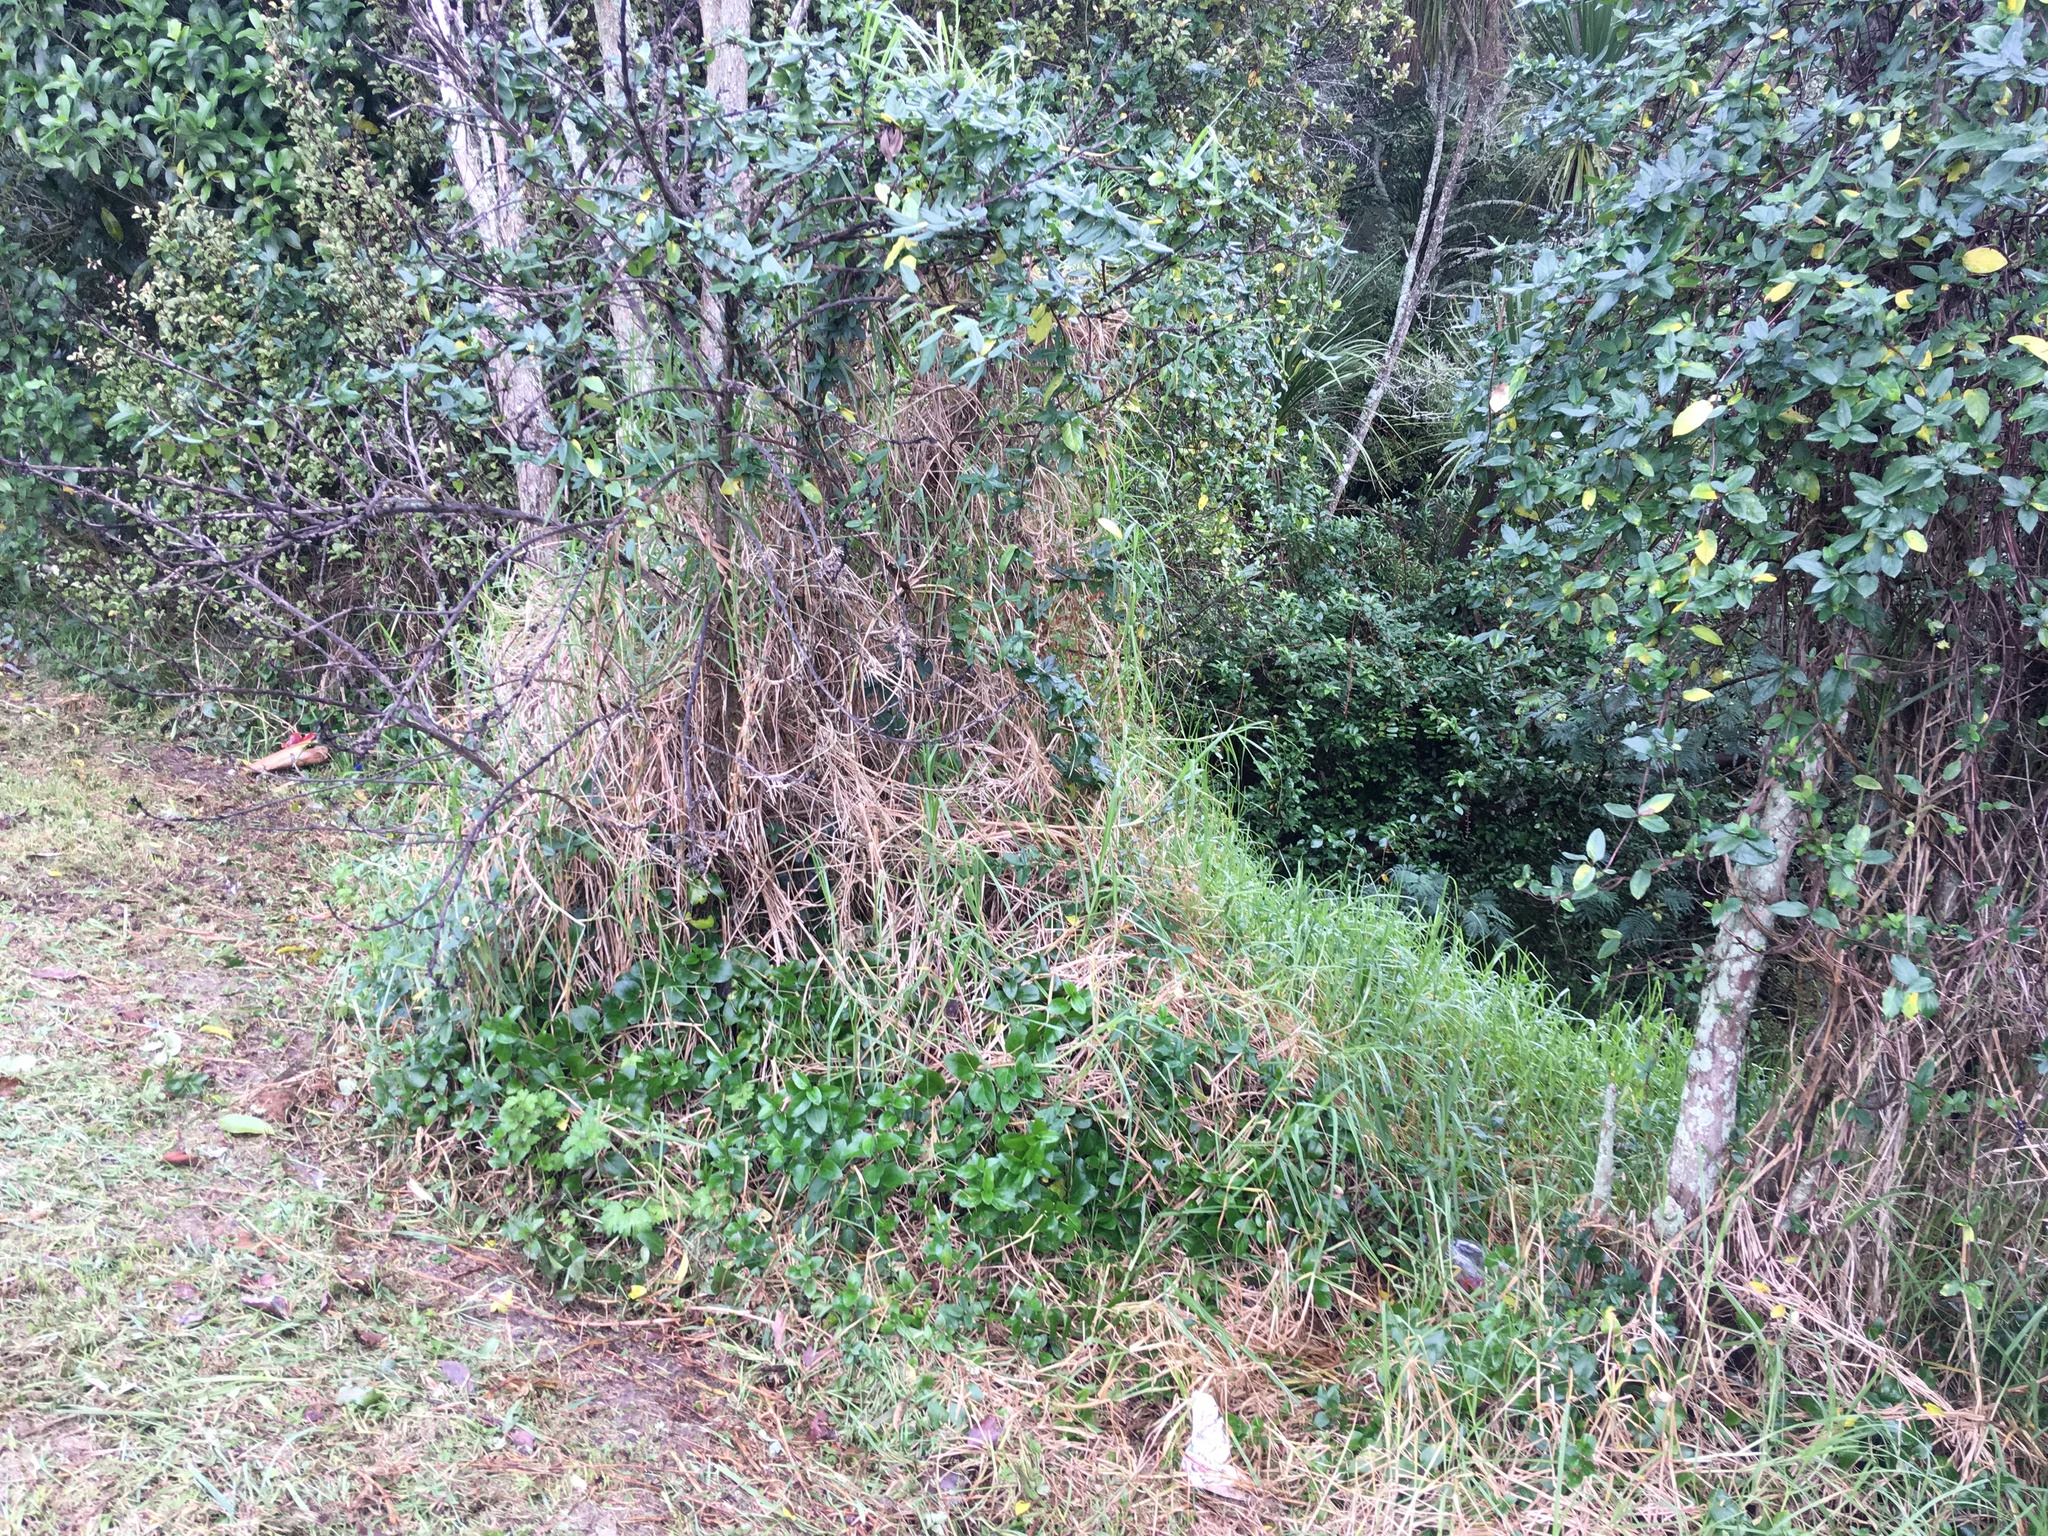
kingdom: Plantae
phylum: Tracheophyta
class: Magnoliopsida
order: Dipsacales
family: Caprifoliaceae
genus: Lonicera
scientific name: Lonicera japonica
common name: Japanese honeysuckle
